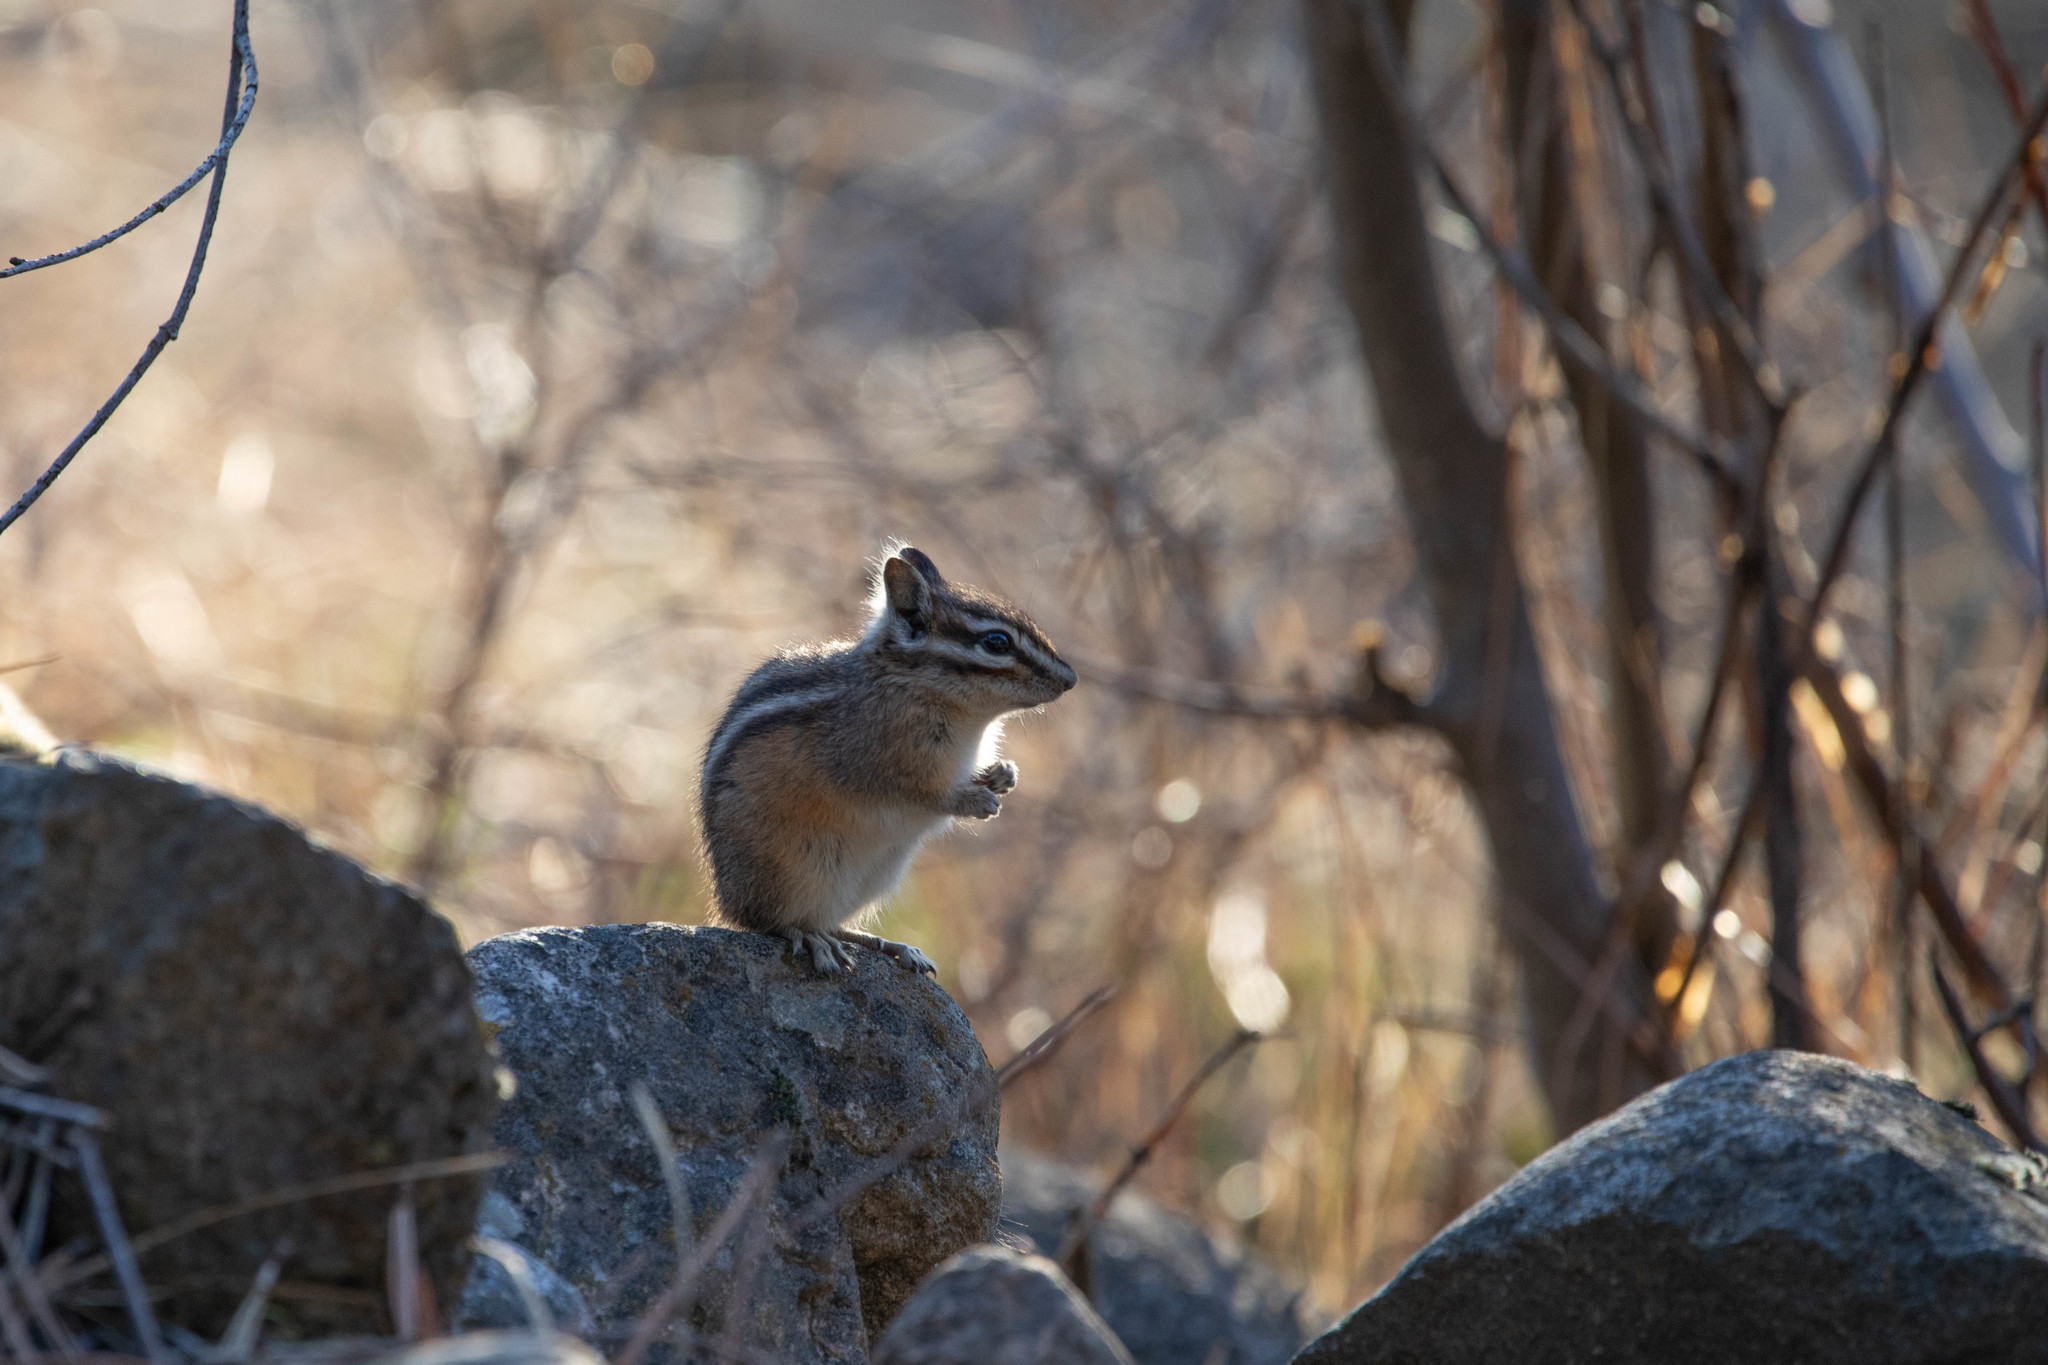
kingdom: Animalia
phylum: Chordata
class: Mammalia
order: Rodentia
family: Sciuridae
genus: Tamias
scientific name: Tamias amoenus
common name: Yellow-pine chipmunk
